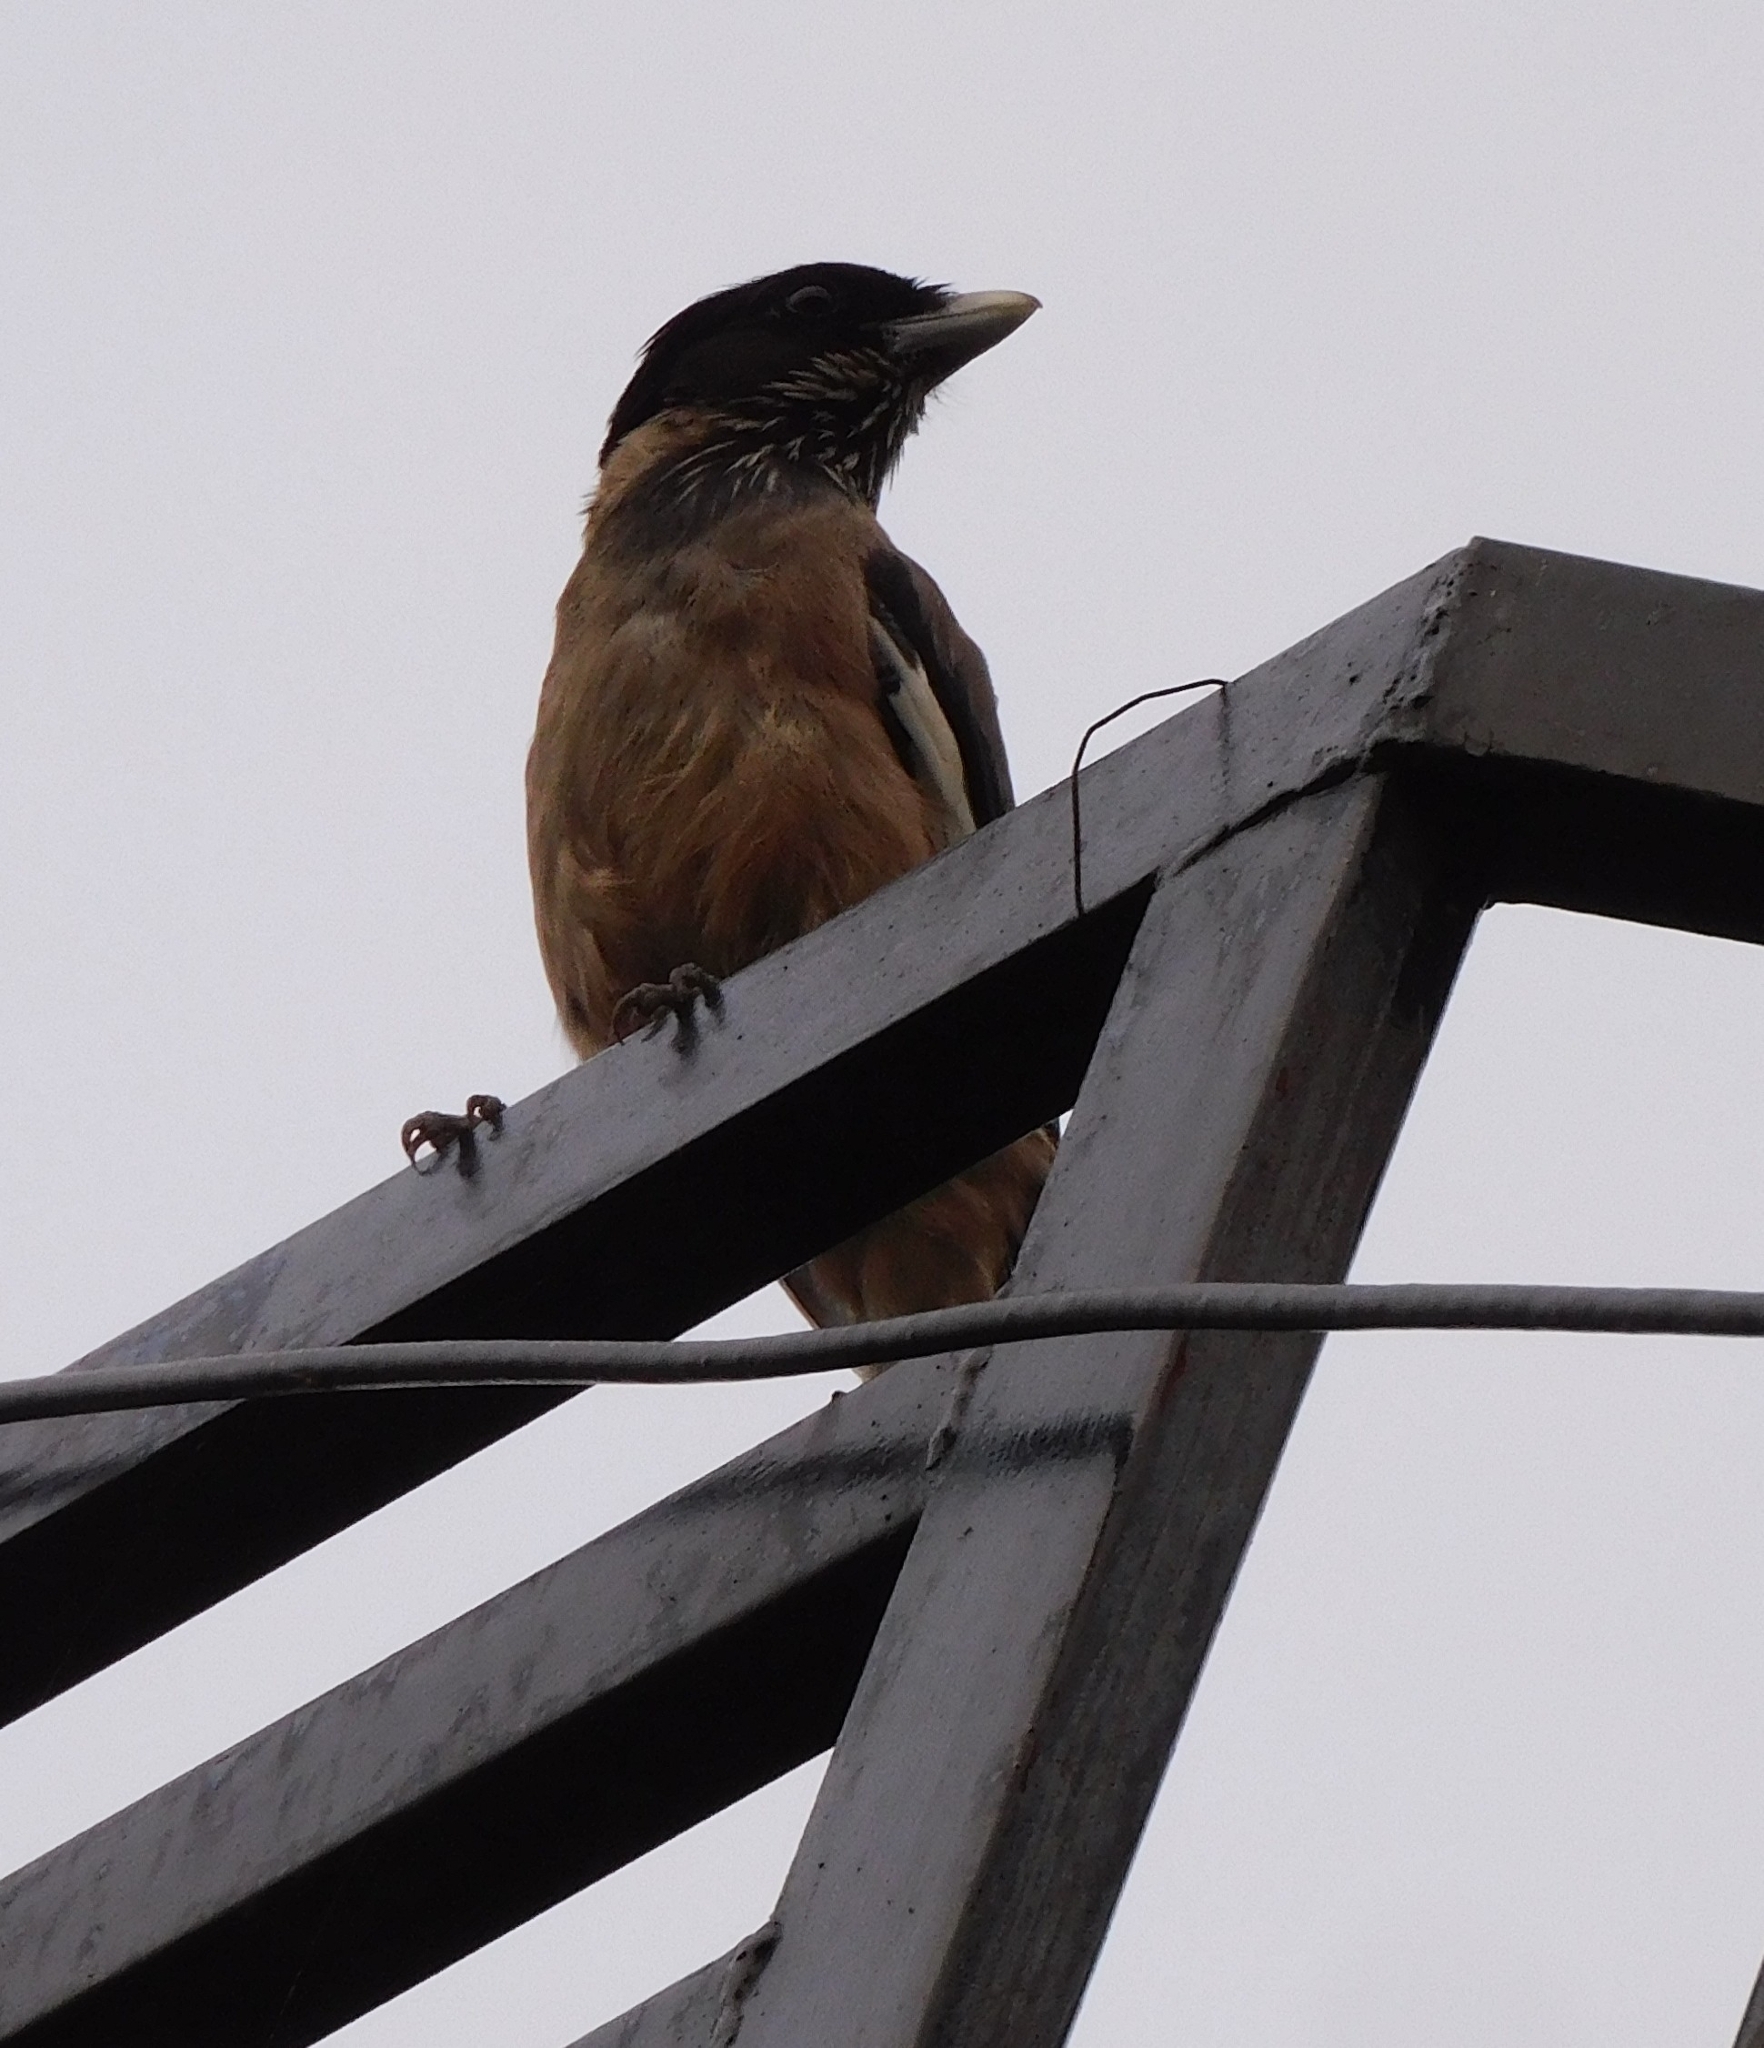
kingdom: Animalia
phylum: Chordata
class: Aves
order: Passeriformes
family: Corvidae
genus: Garrulus
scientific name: Garrulus lanceolatus
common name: Black-headed jay
